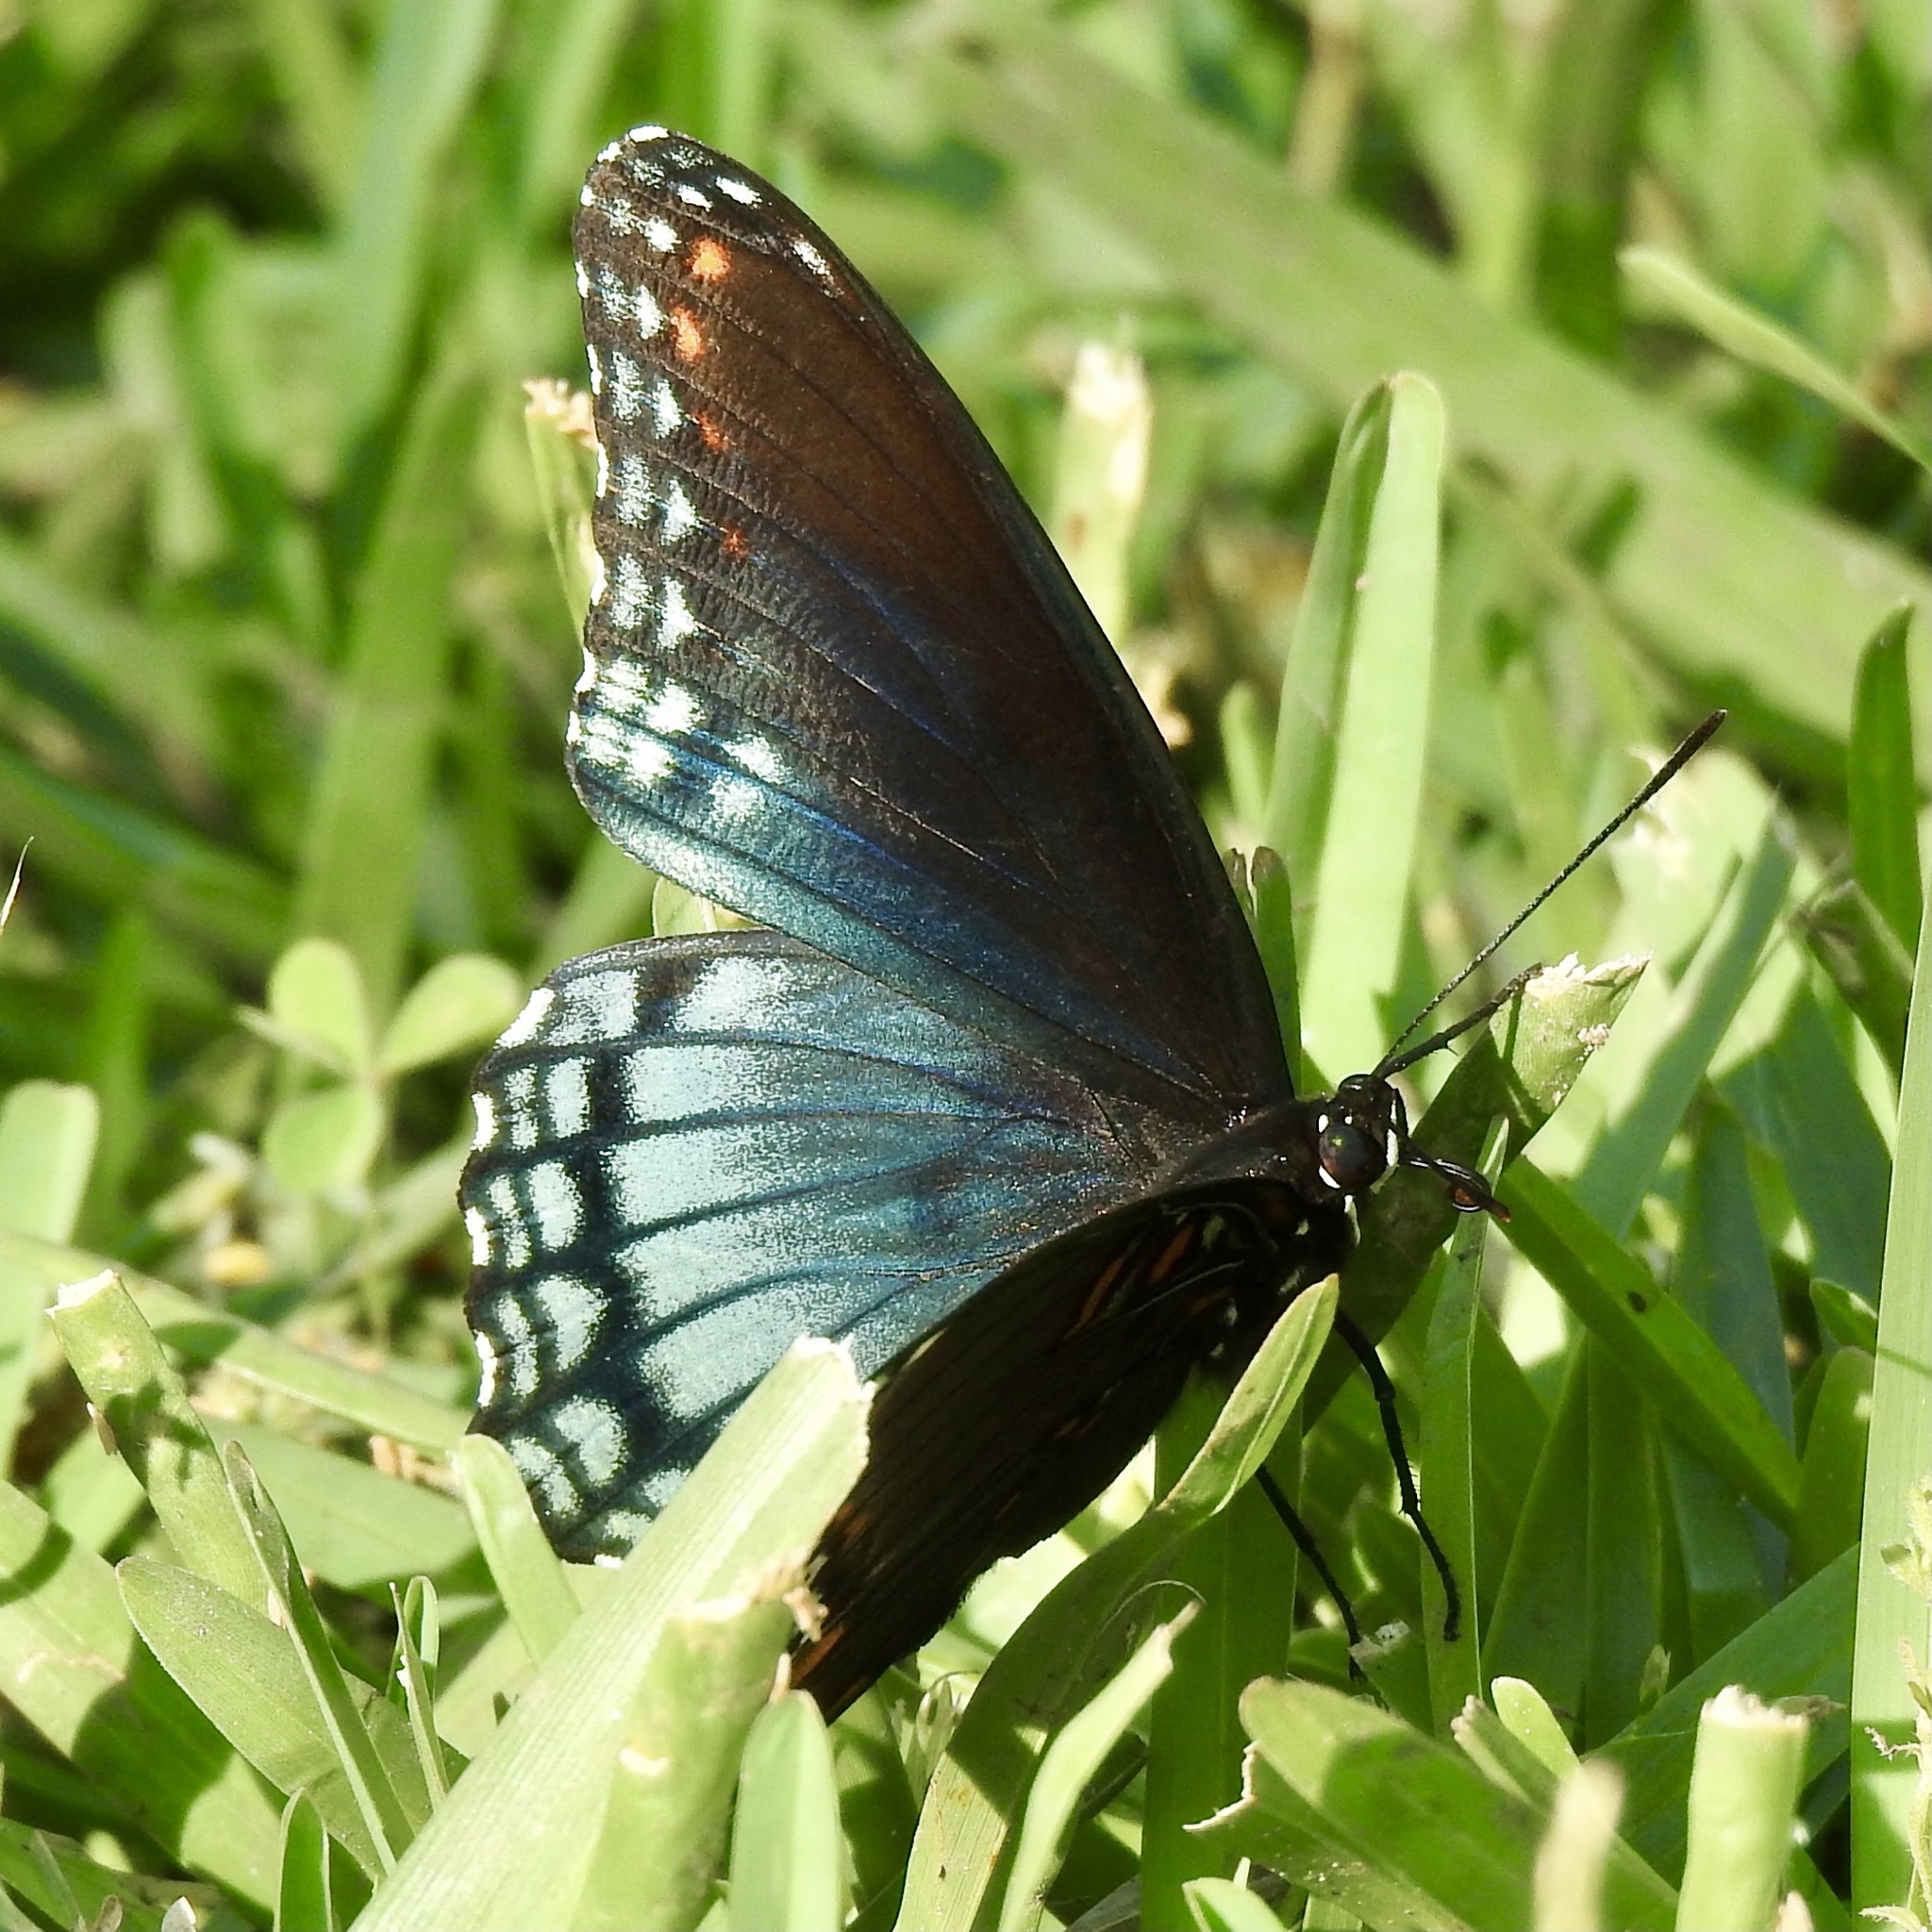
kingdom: Animalia
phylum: Arthropoda
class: Insecta
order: Lepidoptera
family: Nymphalidae
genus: Limenitis
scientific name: Limenitis arthemis
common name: Red-spotted admiral
